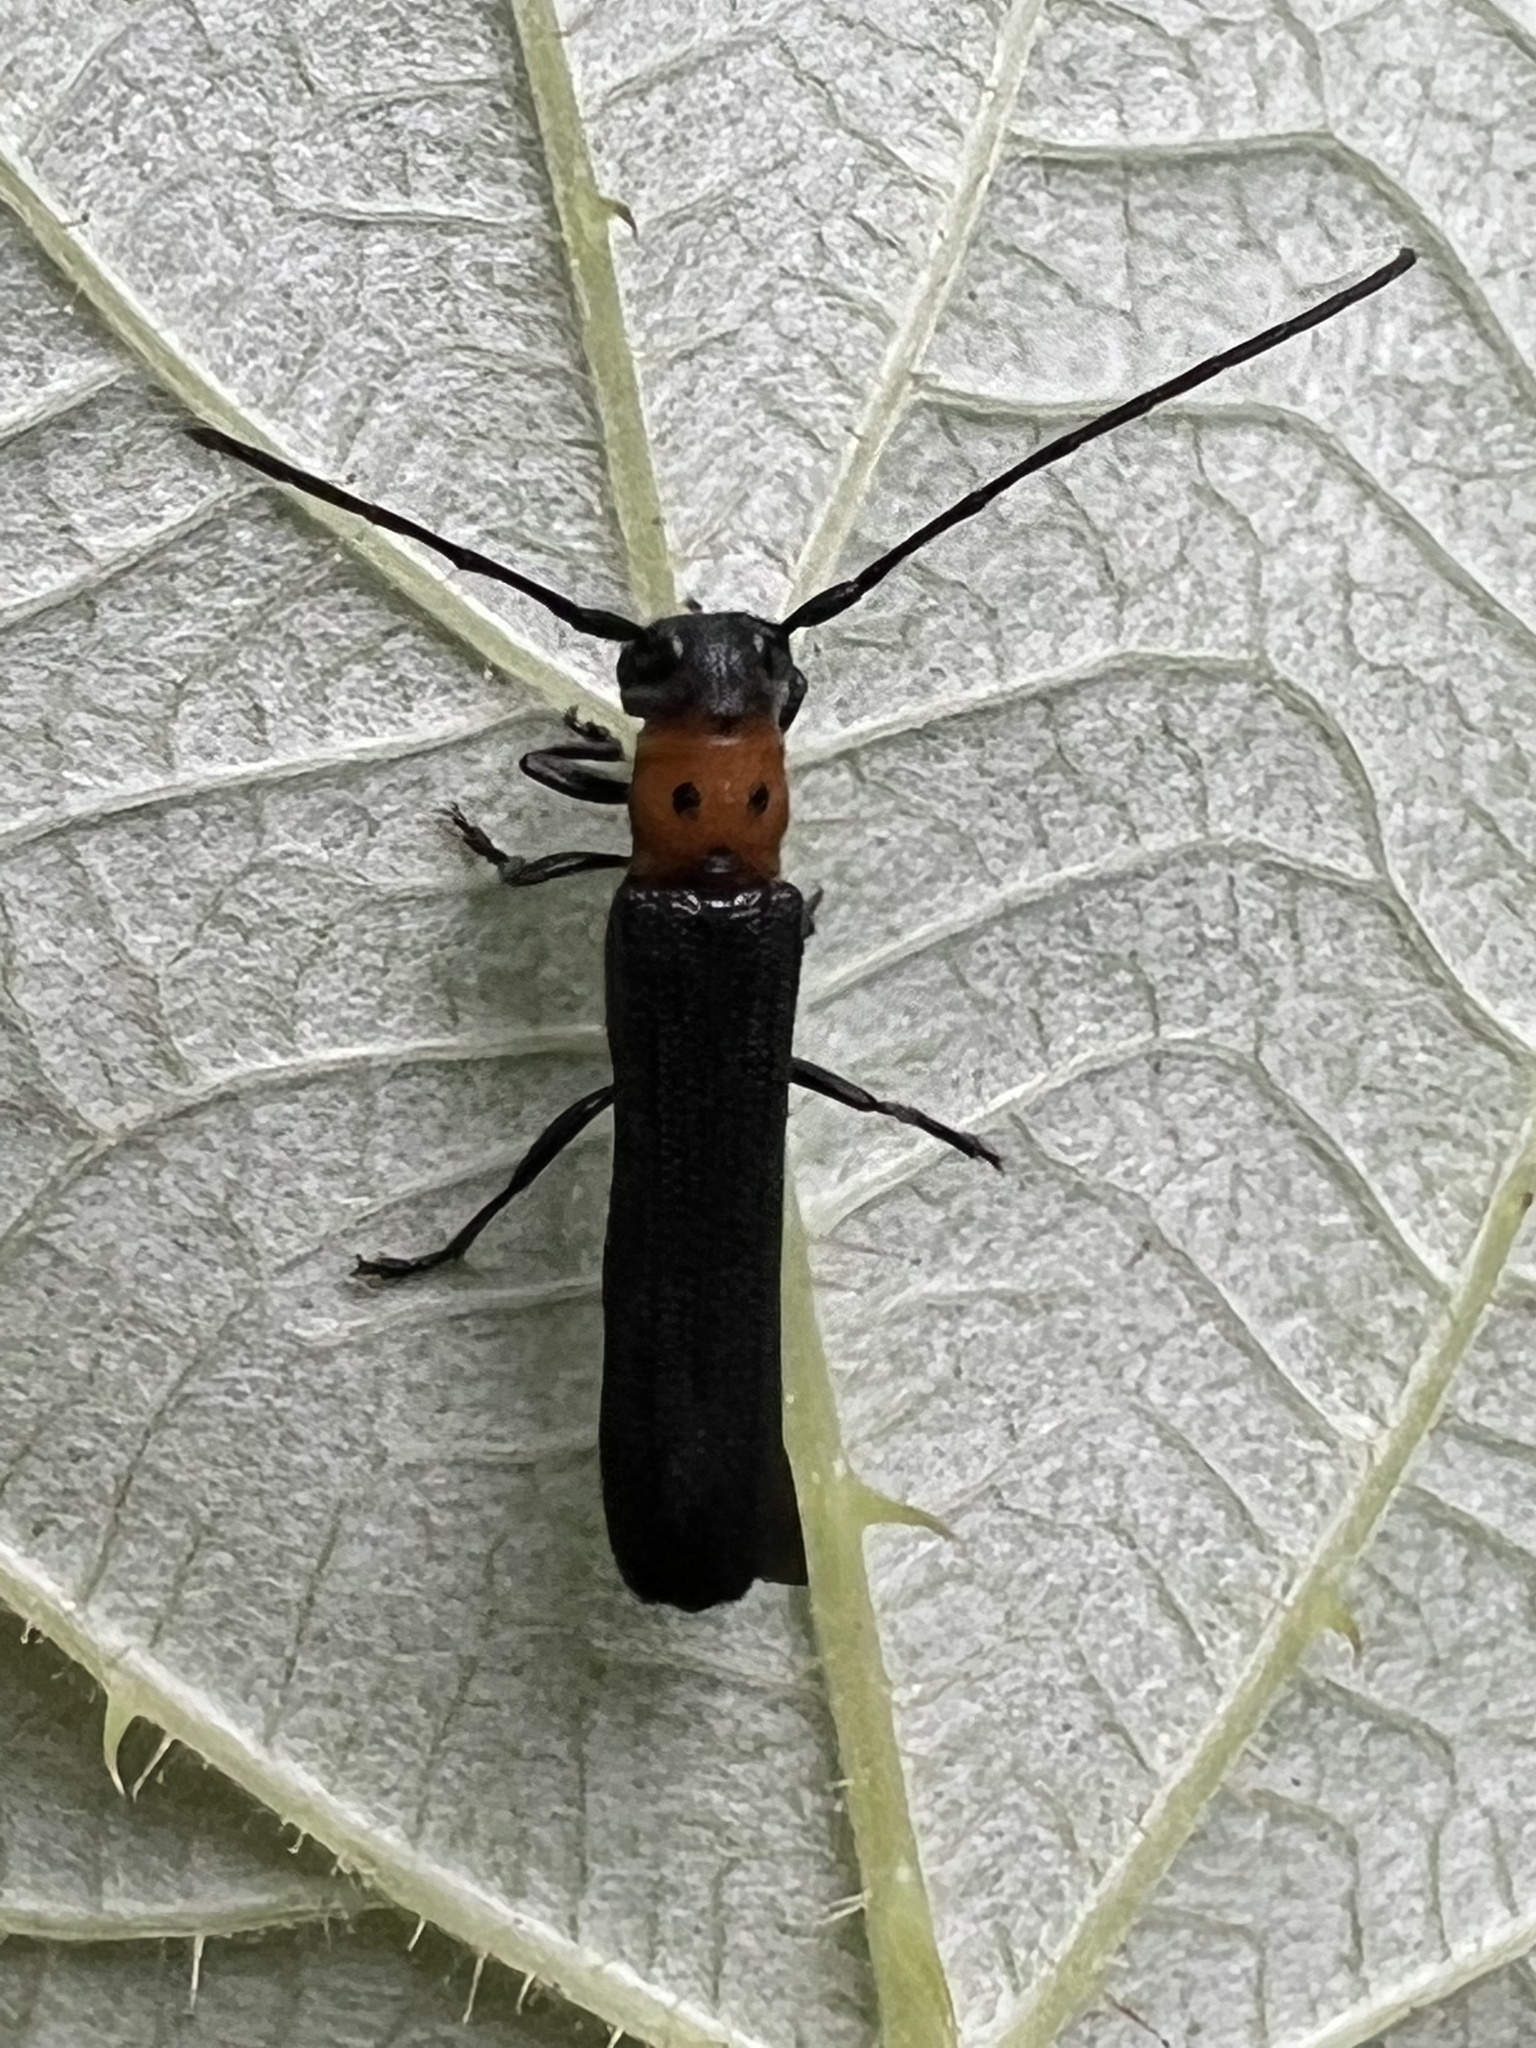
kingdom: Animalia
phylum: Arthropoda
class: Insecta
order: Coleoptera
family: Cerambycidae
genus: Oberea
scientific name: Oberea perspicillata
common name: Raspberry cane borer
